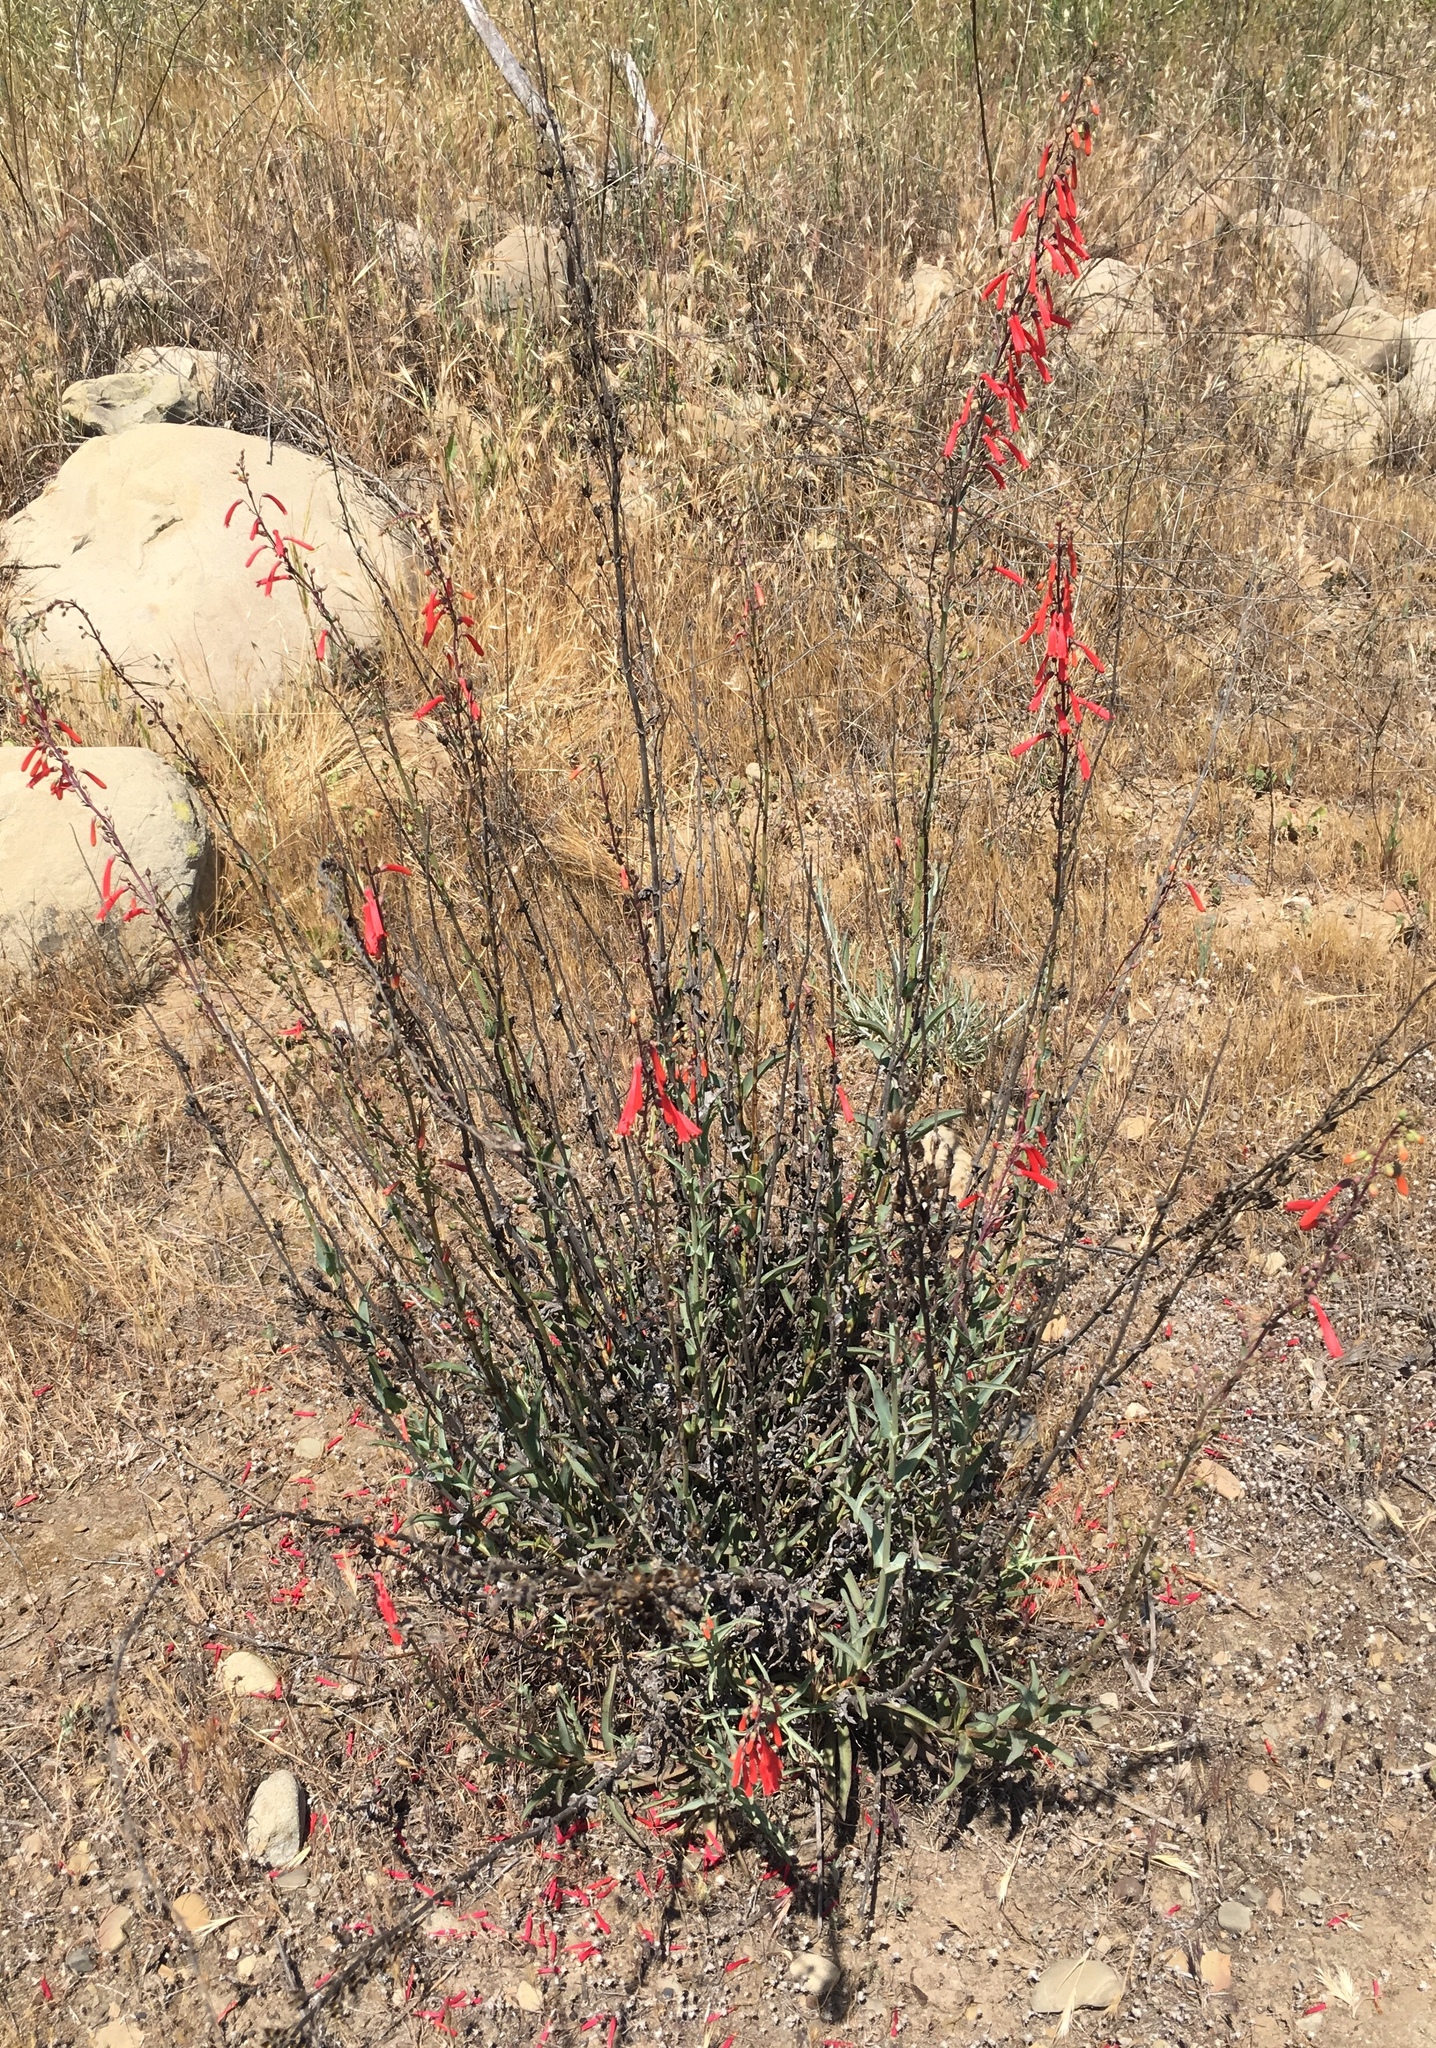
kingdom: Plantae
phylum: Tracheophyta
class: Magnoliopsida
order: Lamiales
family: Plantaginaceae
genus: Penstemon
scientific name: Penstemon centranthifolius
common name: Scarlet bugler
